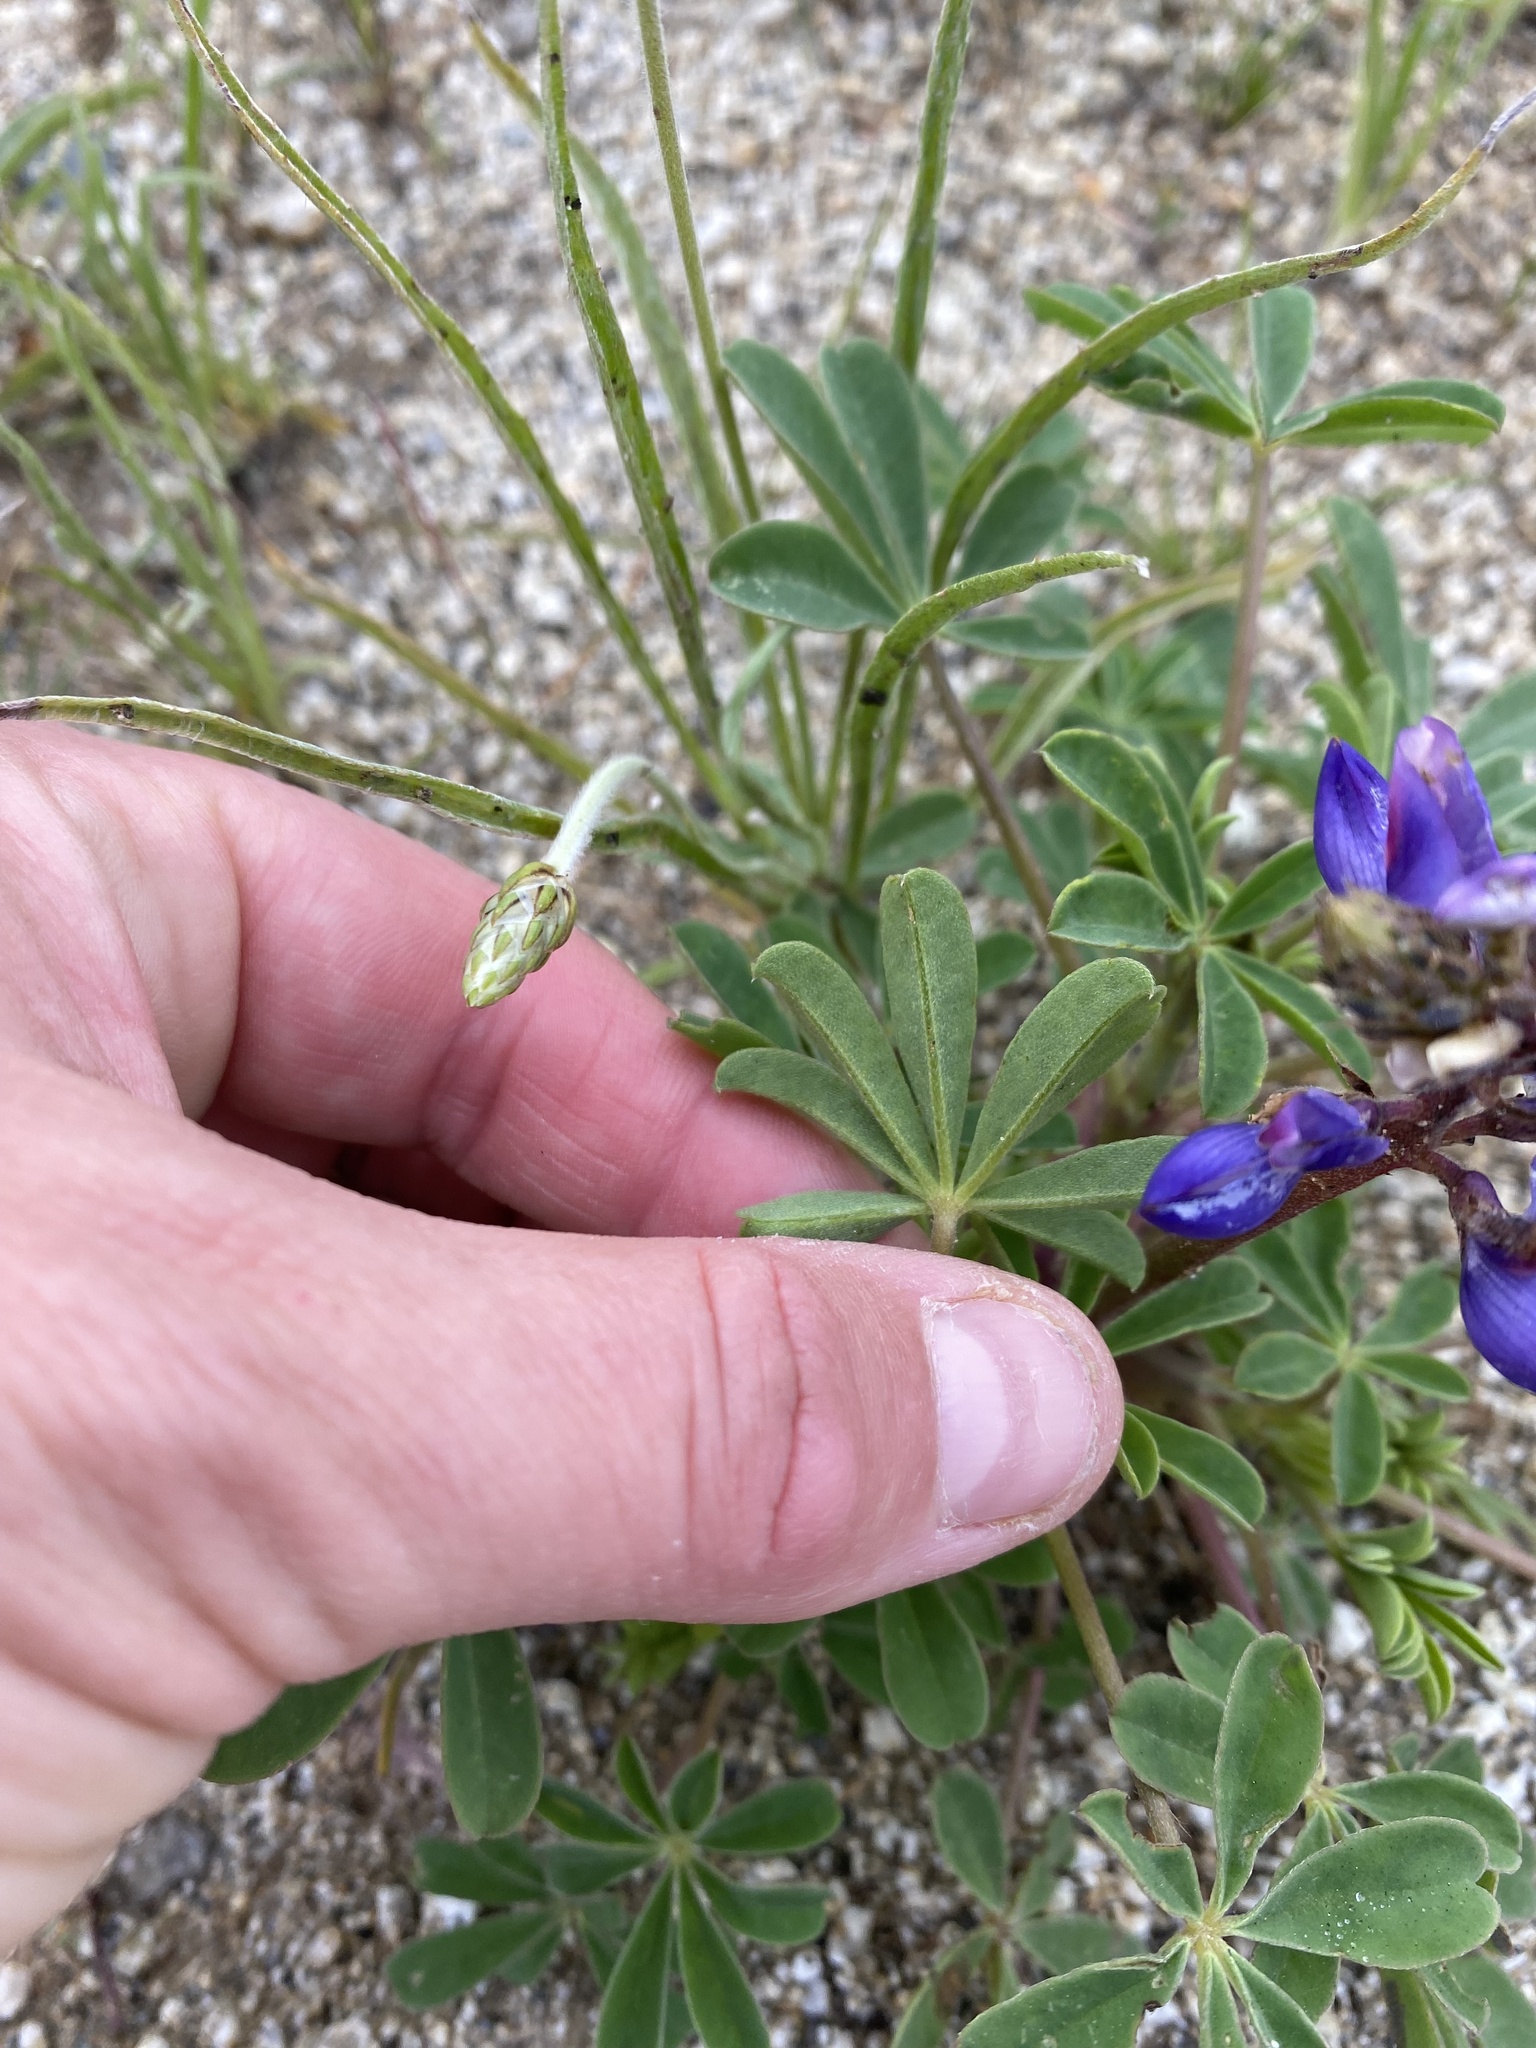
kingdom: Plantae
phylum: Tracheophyta
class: Magnoliopsida
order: Fabales
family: Fabaceae
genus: Lupinus
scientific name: Lupinus succulentus
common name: Arroyo lupine
